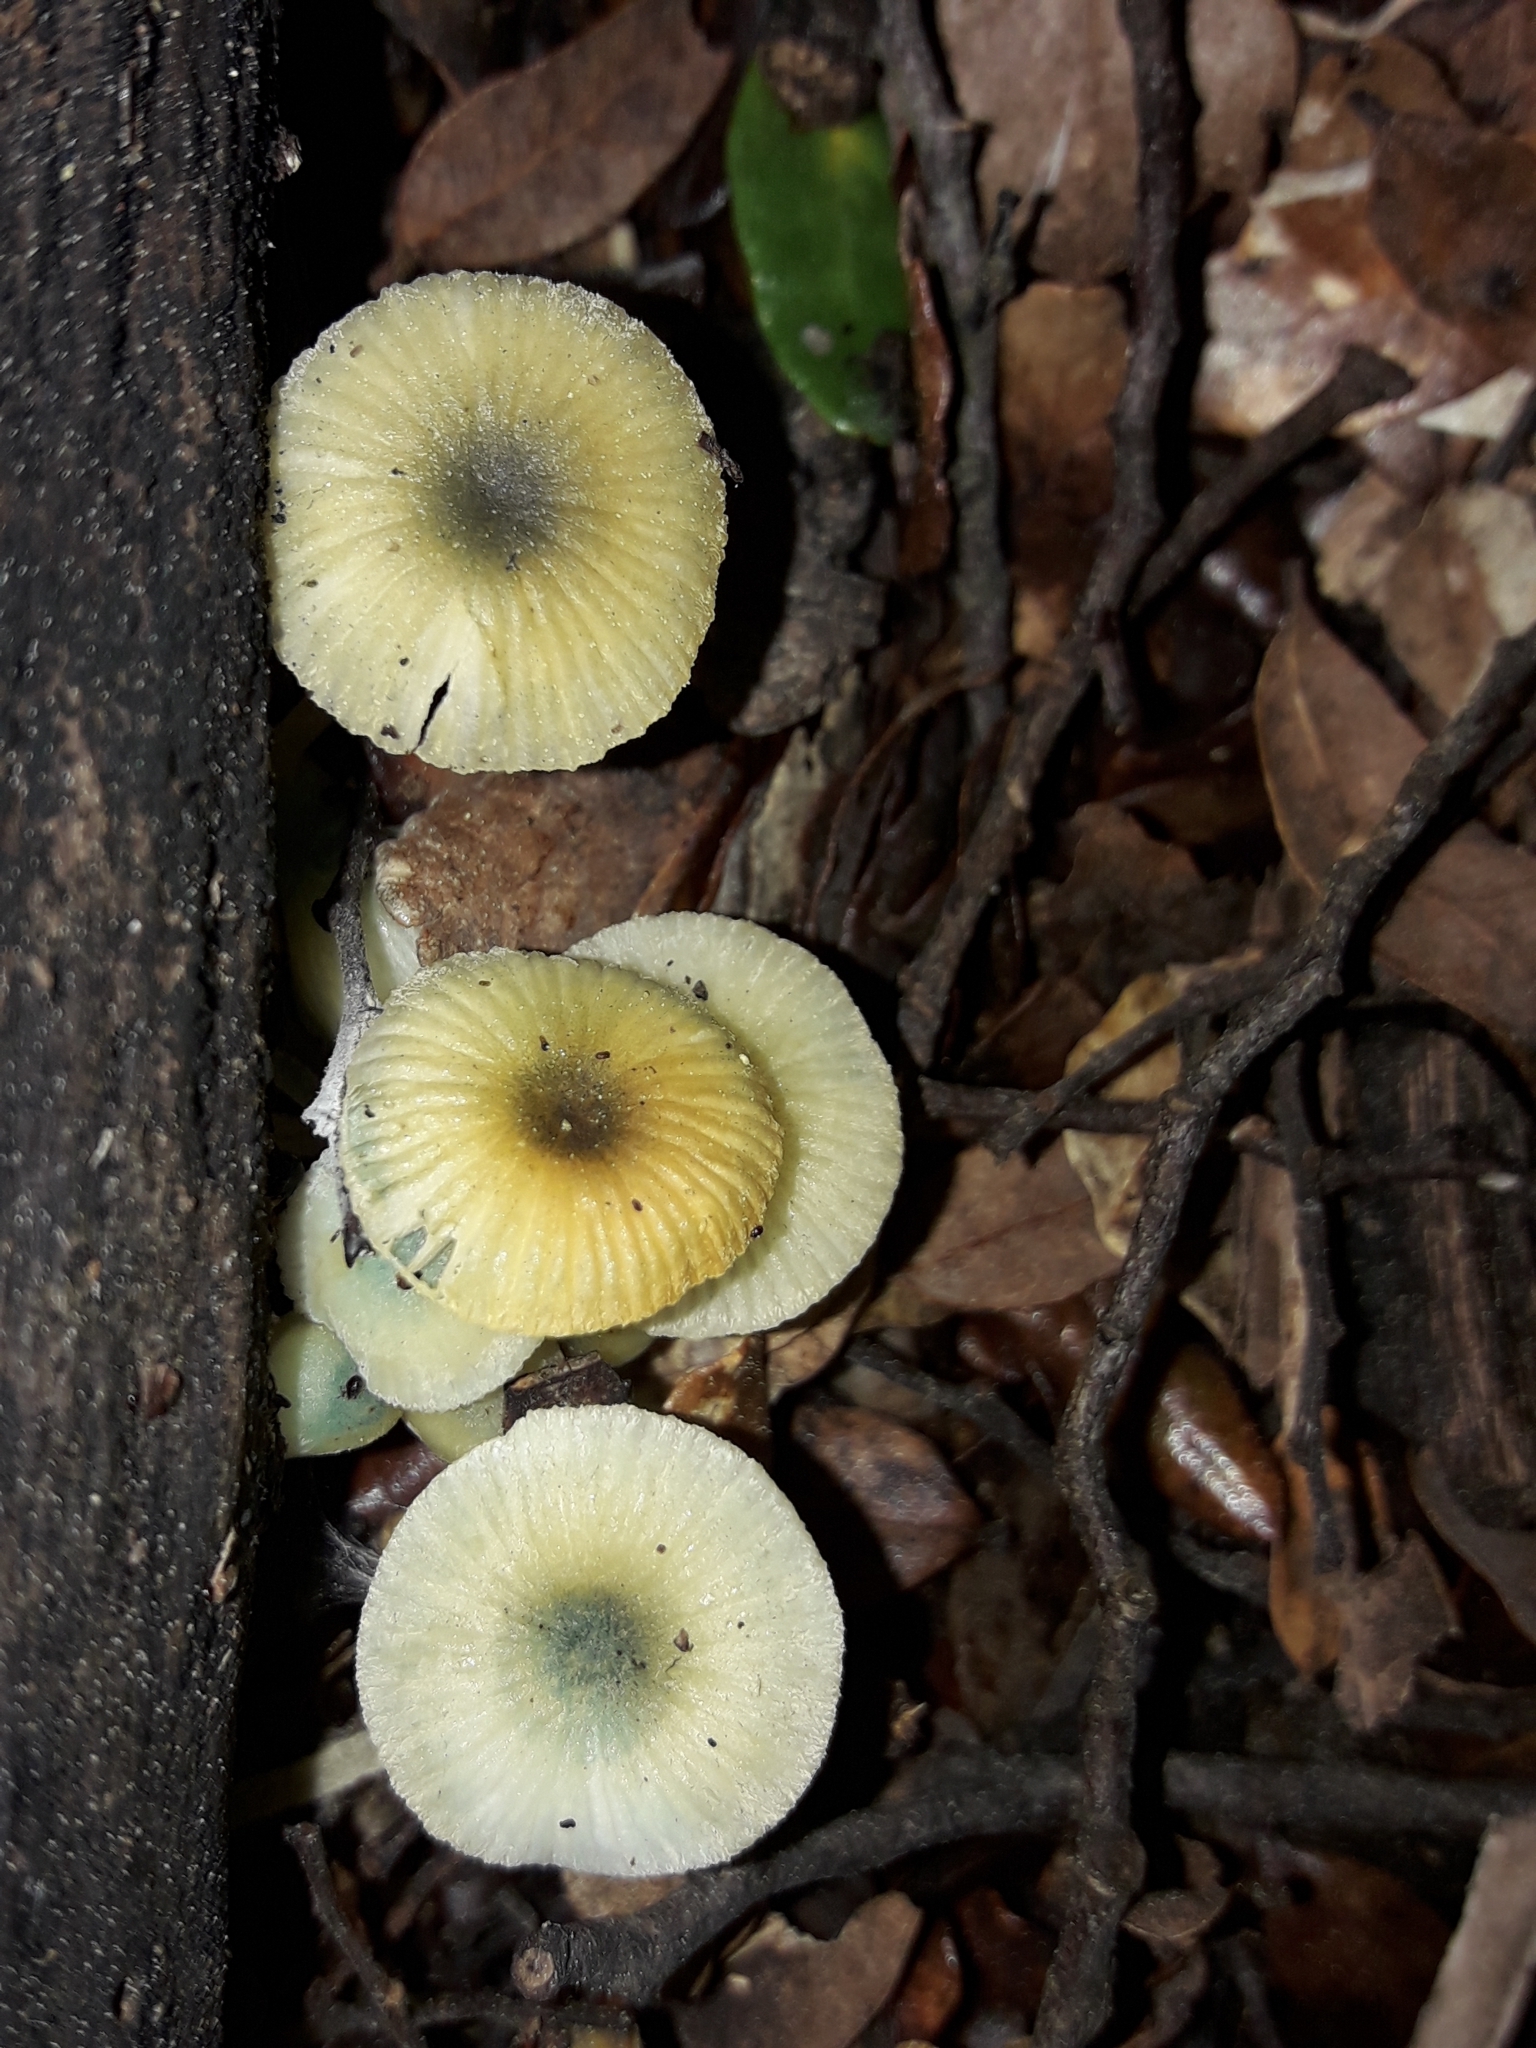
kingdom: Fungi
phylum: Basidiomycota
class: Agaricomycetes
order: Agaricales
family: Mycenaceae
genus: Mycena
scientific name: Mycena interrupta
